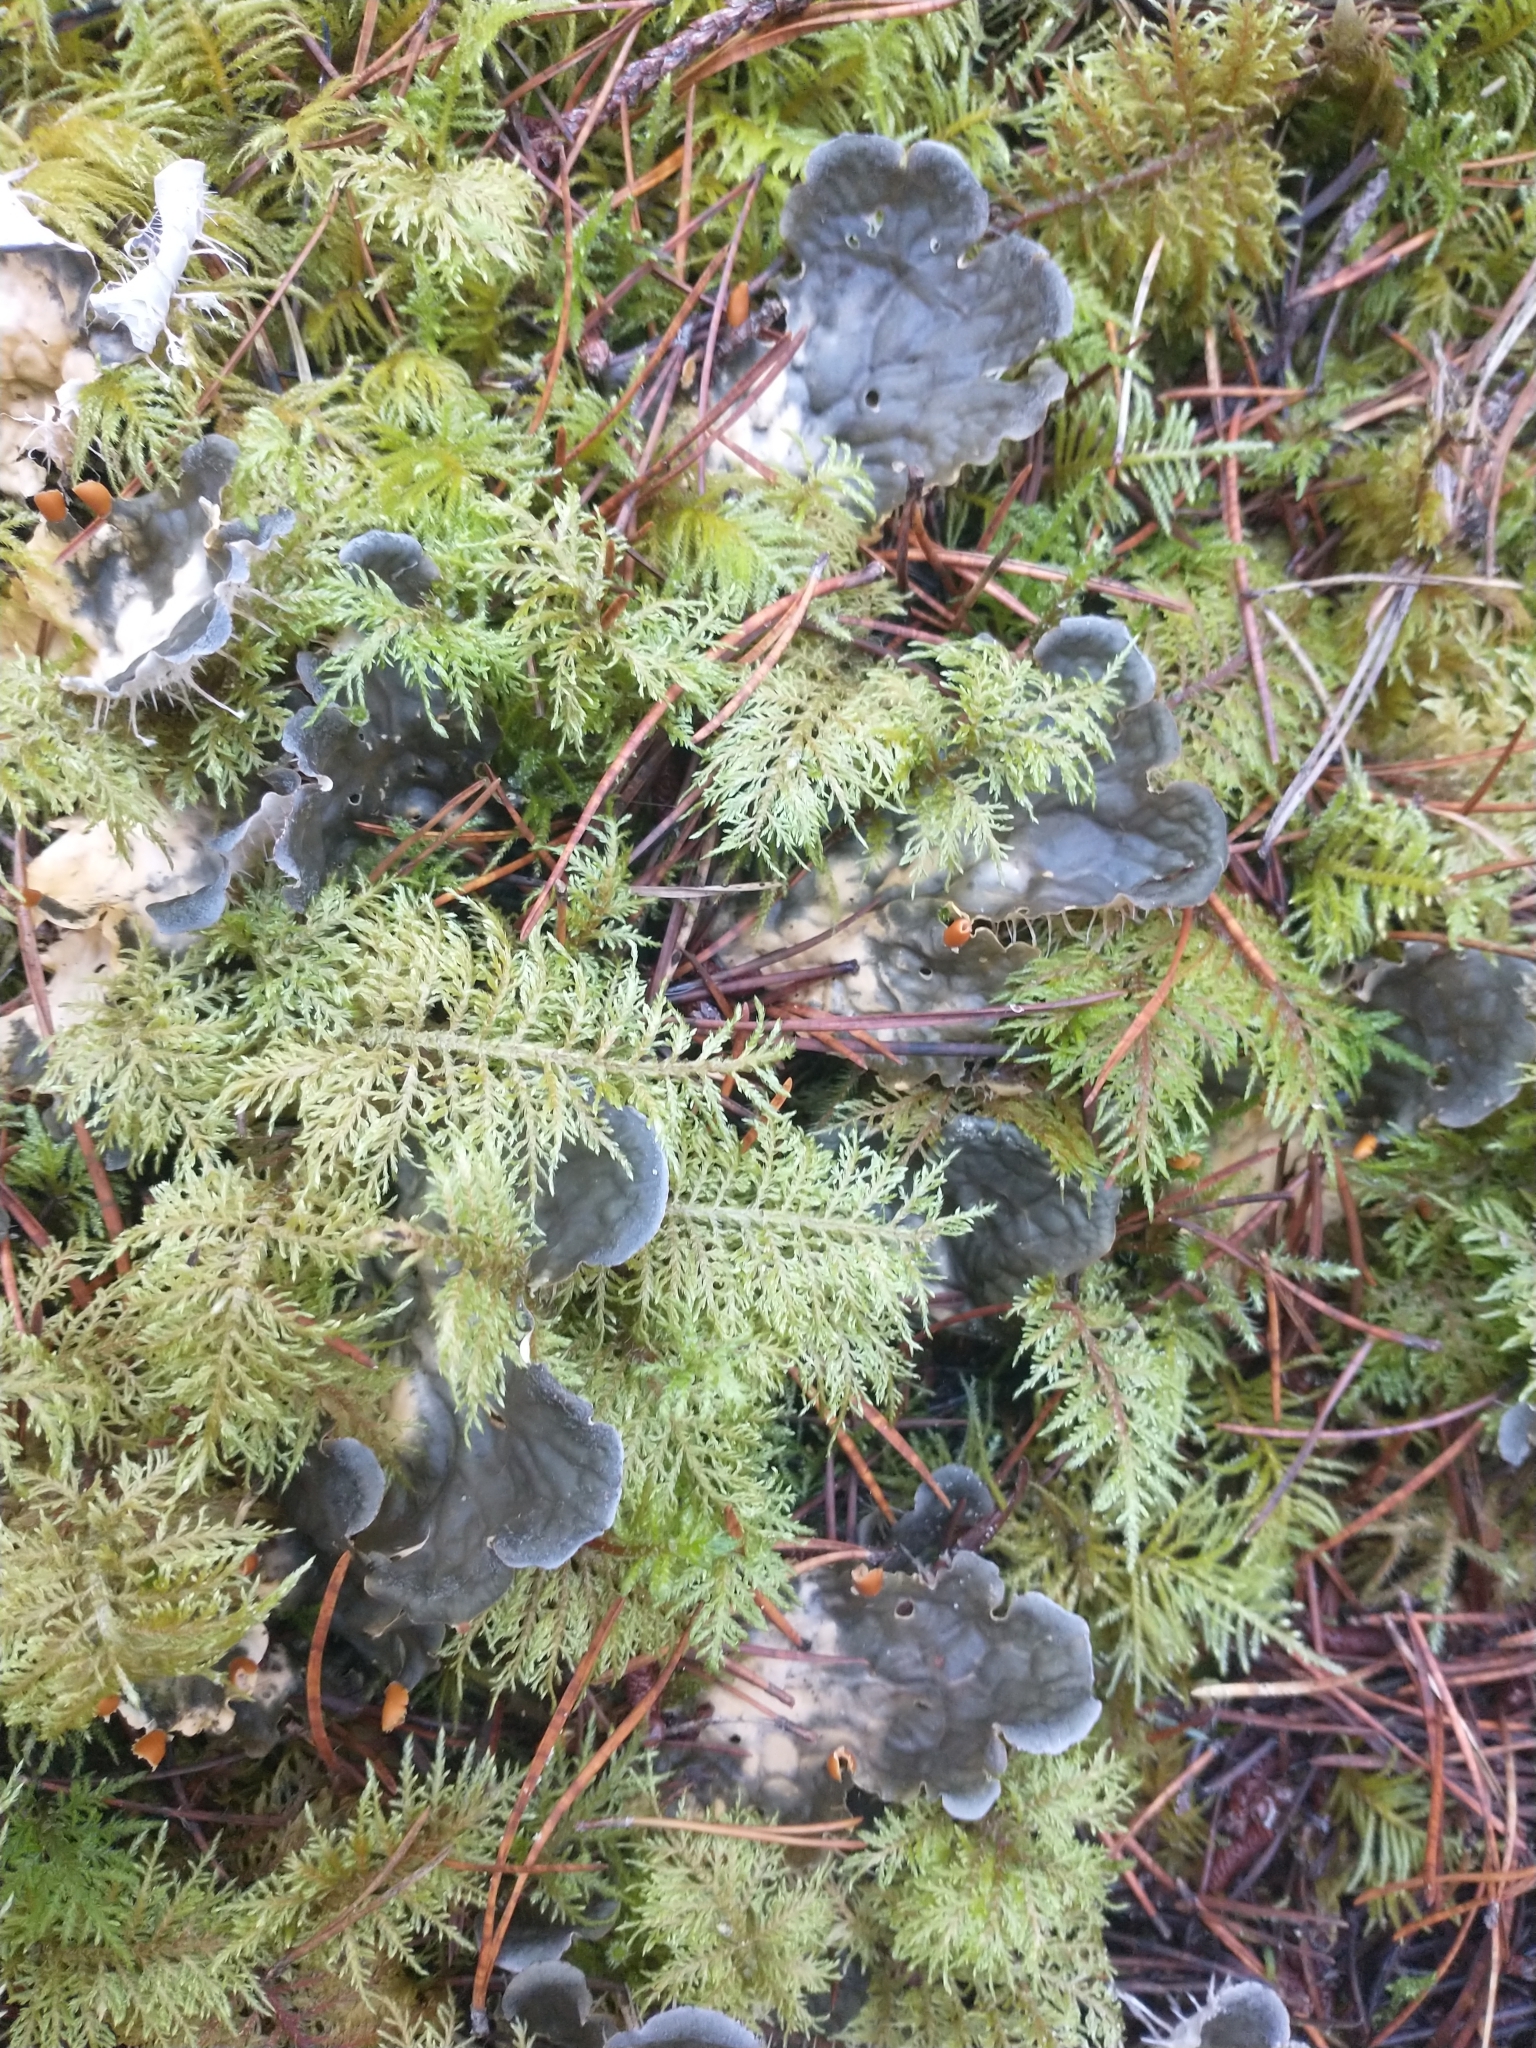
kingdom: Plantae
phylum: Bryophyta
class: Bryopsida
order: Hypnales
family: Hylocomiaceae
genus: Hylocomium
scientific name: Hylocomium splendens
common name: Stairstep moss
